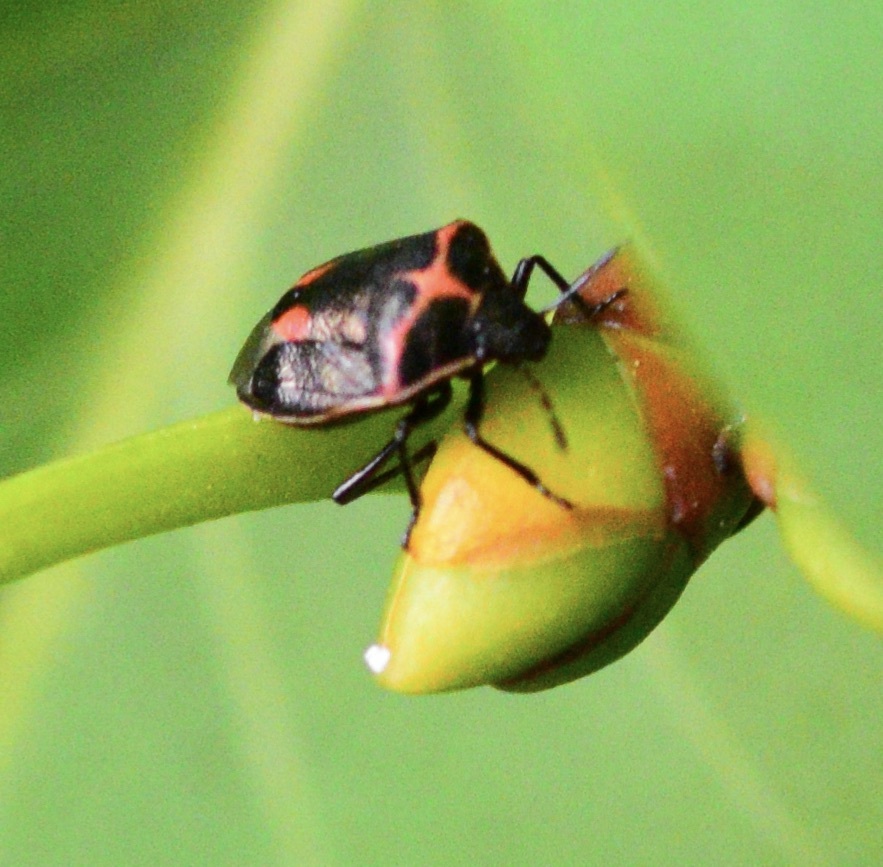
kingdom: Animalia
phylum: Arthropoda
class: Insecta
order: Hemiptera
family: Pentatomidae
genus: Cosmopepla
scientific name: Cosmopepla lintneriana
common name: Twice-stabbed stink bug
